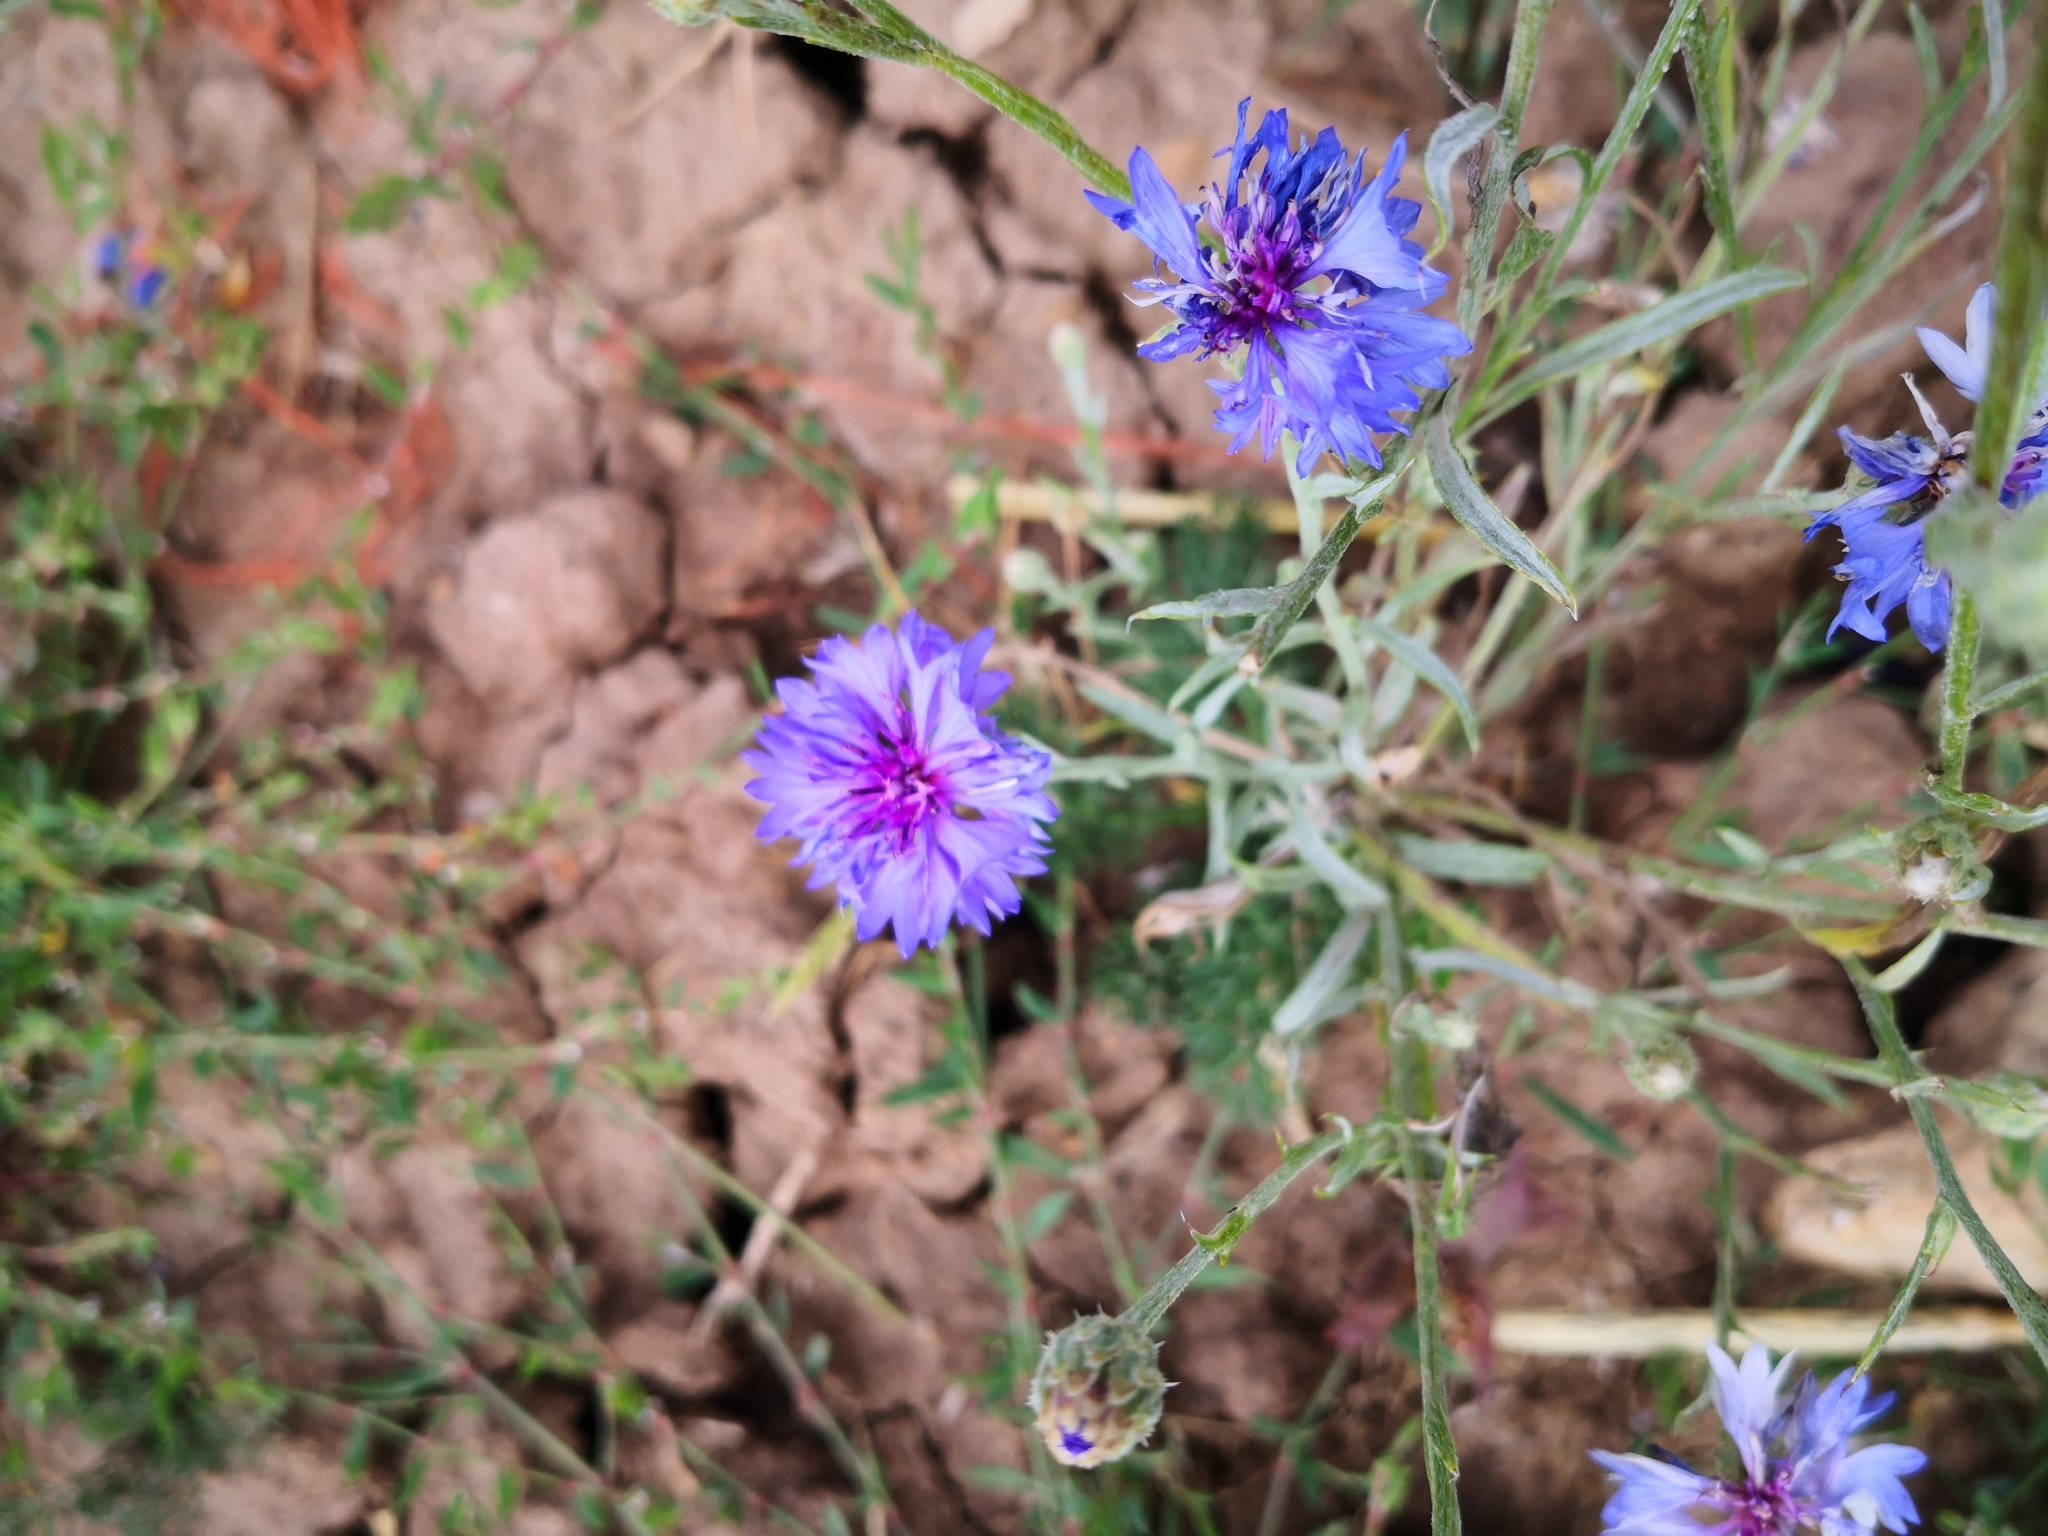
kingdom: Plantae
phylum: Tracheophyta
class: Magnoliopsida
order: Asterales
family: Asteraceae
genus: Centaurea
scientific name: Centaurea cyanus
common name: Cornflower
